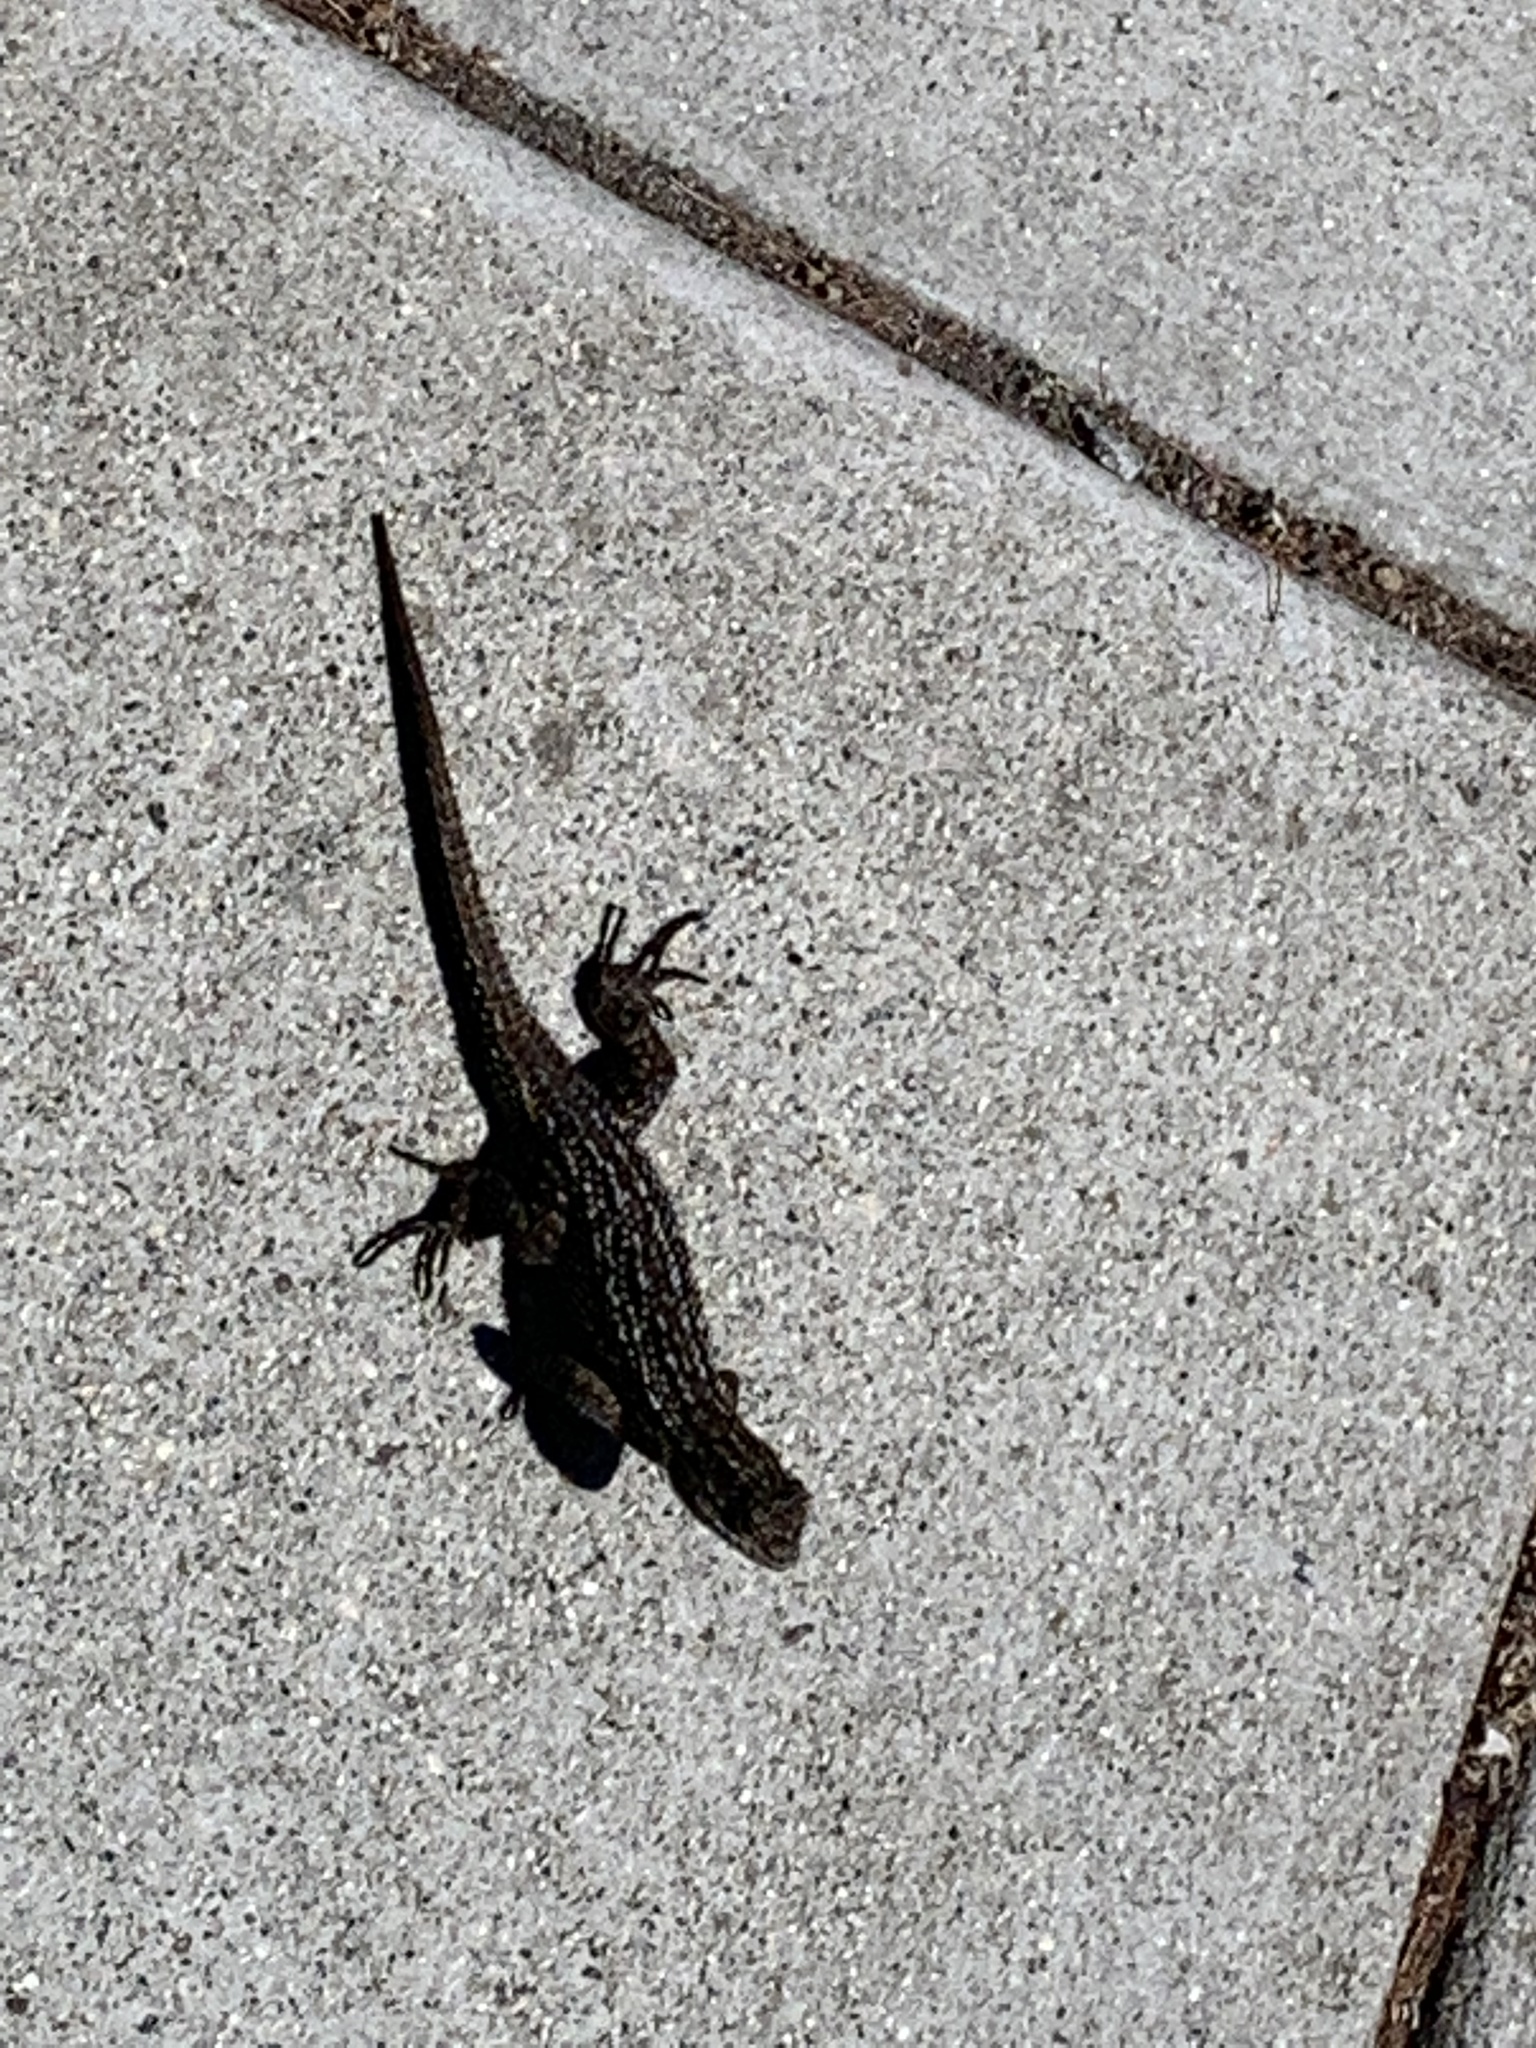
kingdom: Animalia
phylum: Chordata
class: Squamata
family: Phrynosomatidae
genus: Sceloporus
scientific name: Sceloporus occidentalis
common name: Western fence lizard
